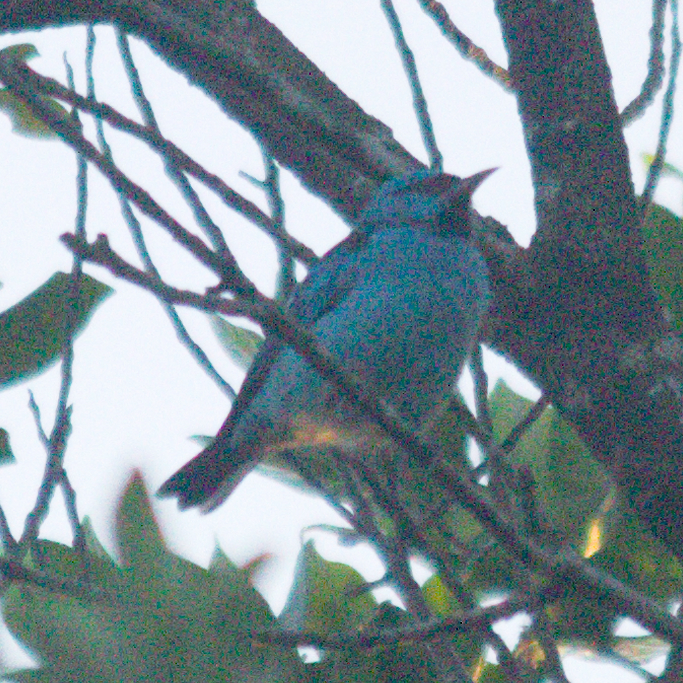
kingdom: Animalia
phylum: Chordata
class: Aves
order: Passeriformes
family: Thraupidae
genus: Dacnis
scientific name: Dacnis cayana
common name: Blue dacnis
